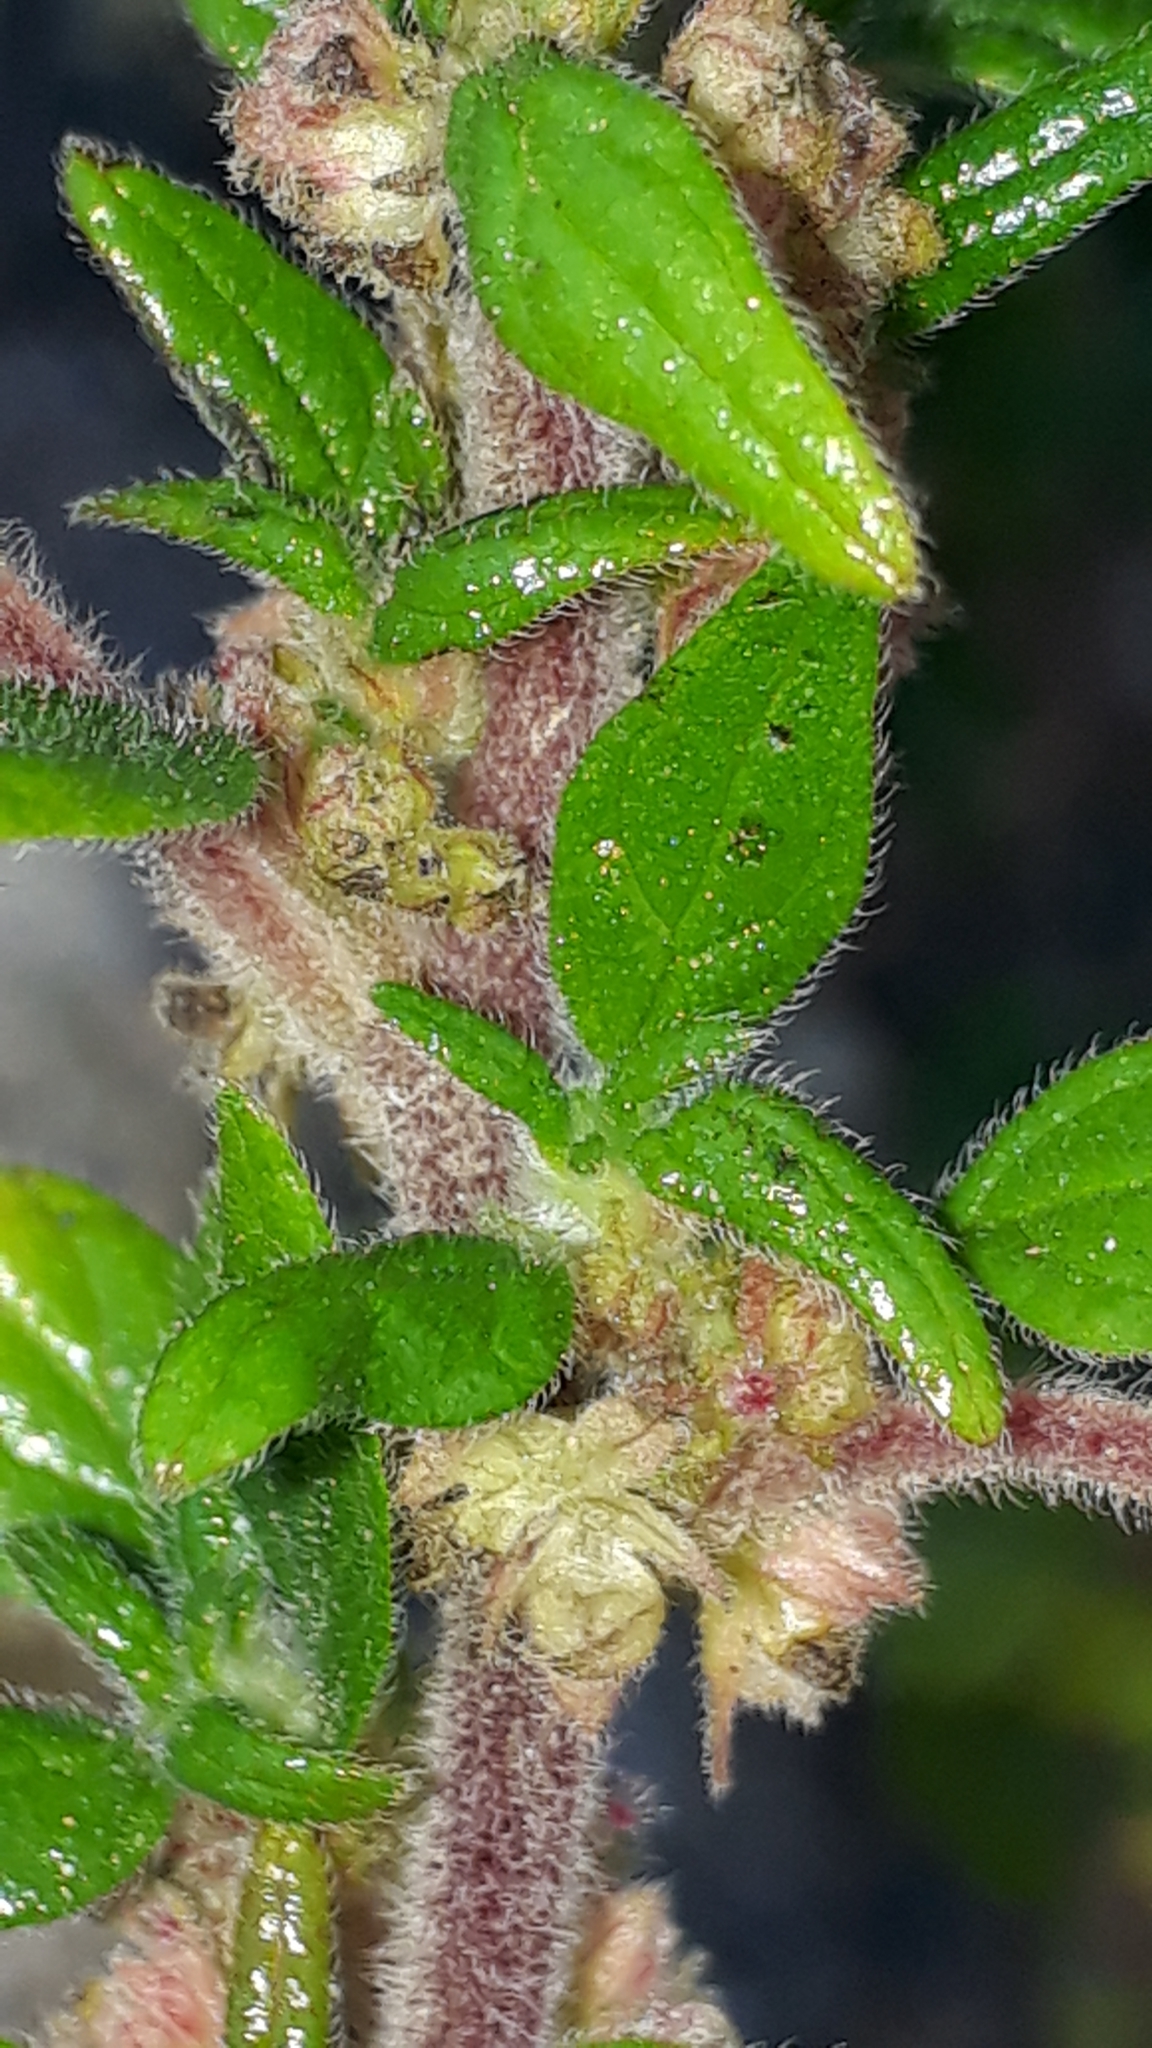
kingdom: Plantae
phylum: Tracheophyta
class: Magnoliopsida
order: Rosales
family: Urticaceae
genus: Parietaria
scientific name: Parietaria judaica
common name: Pellitory-of-the-wall
